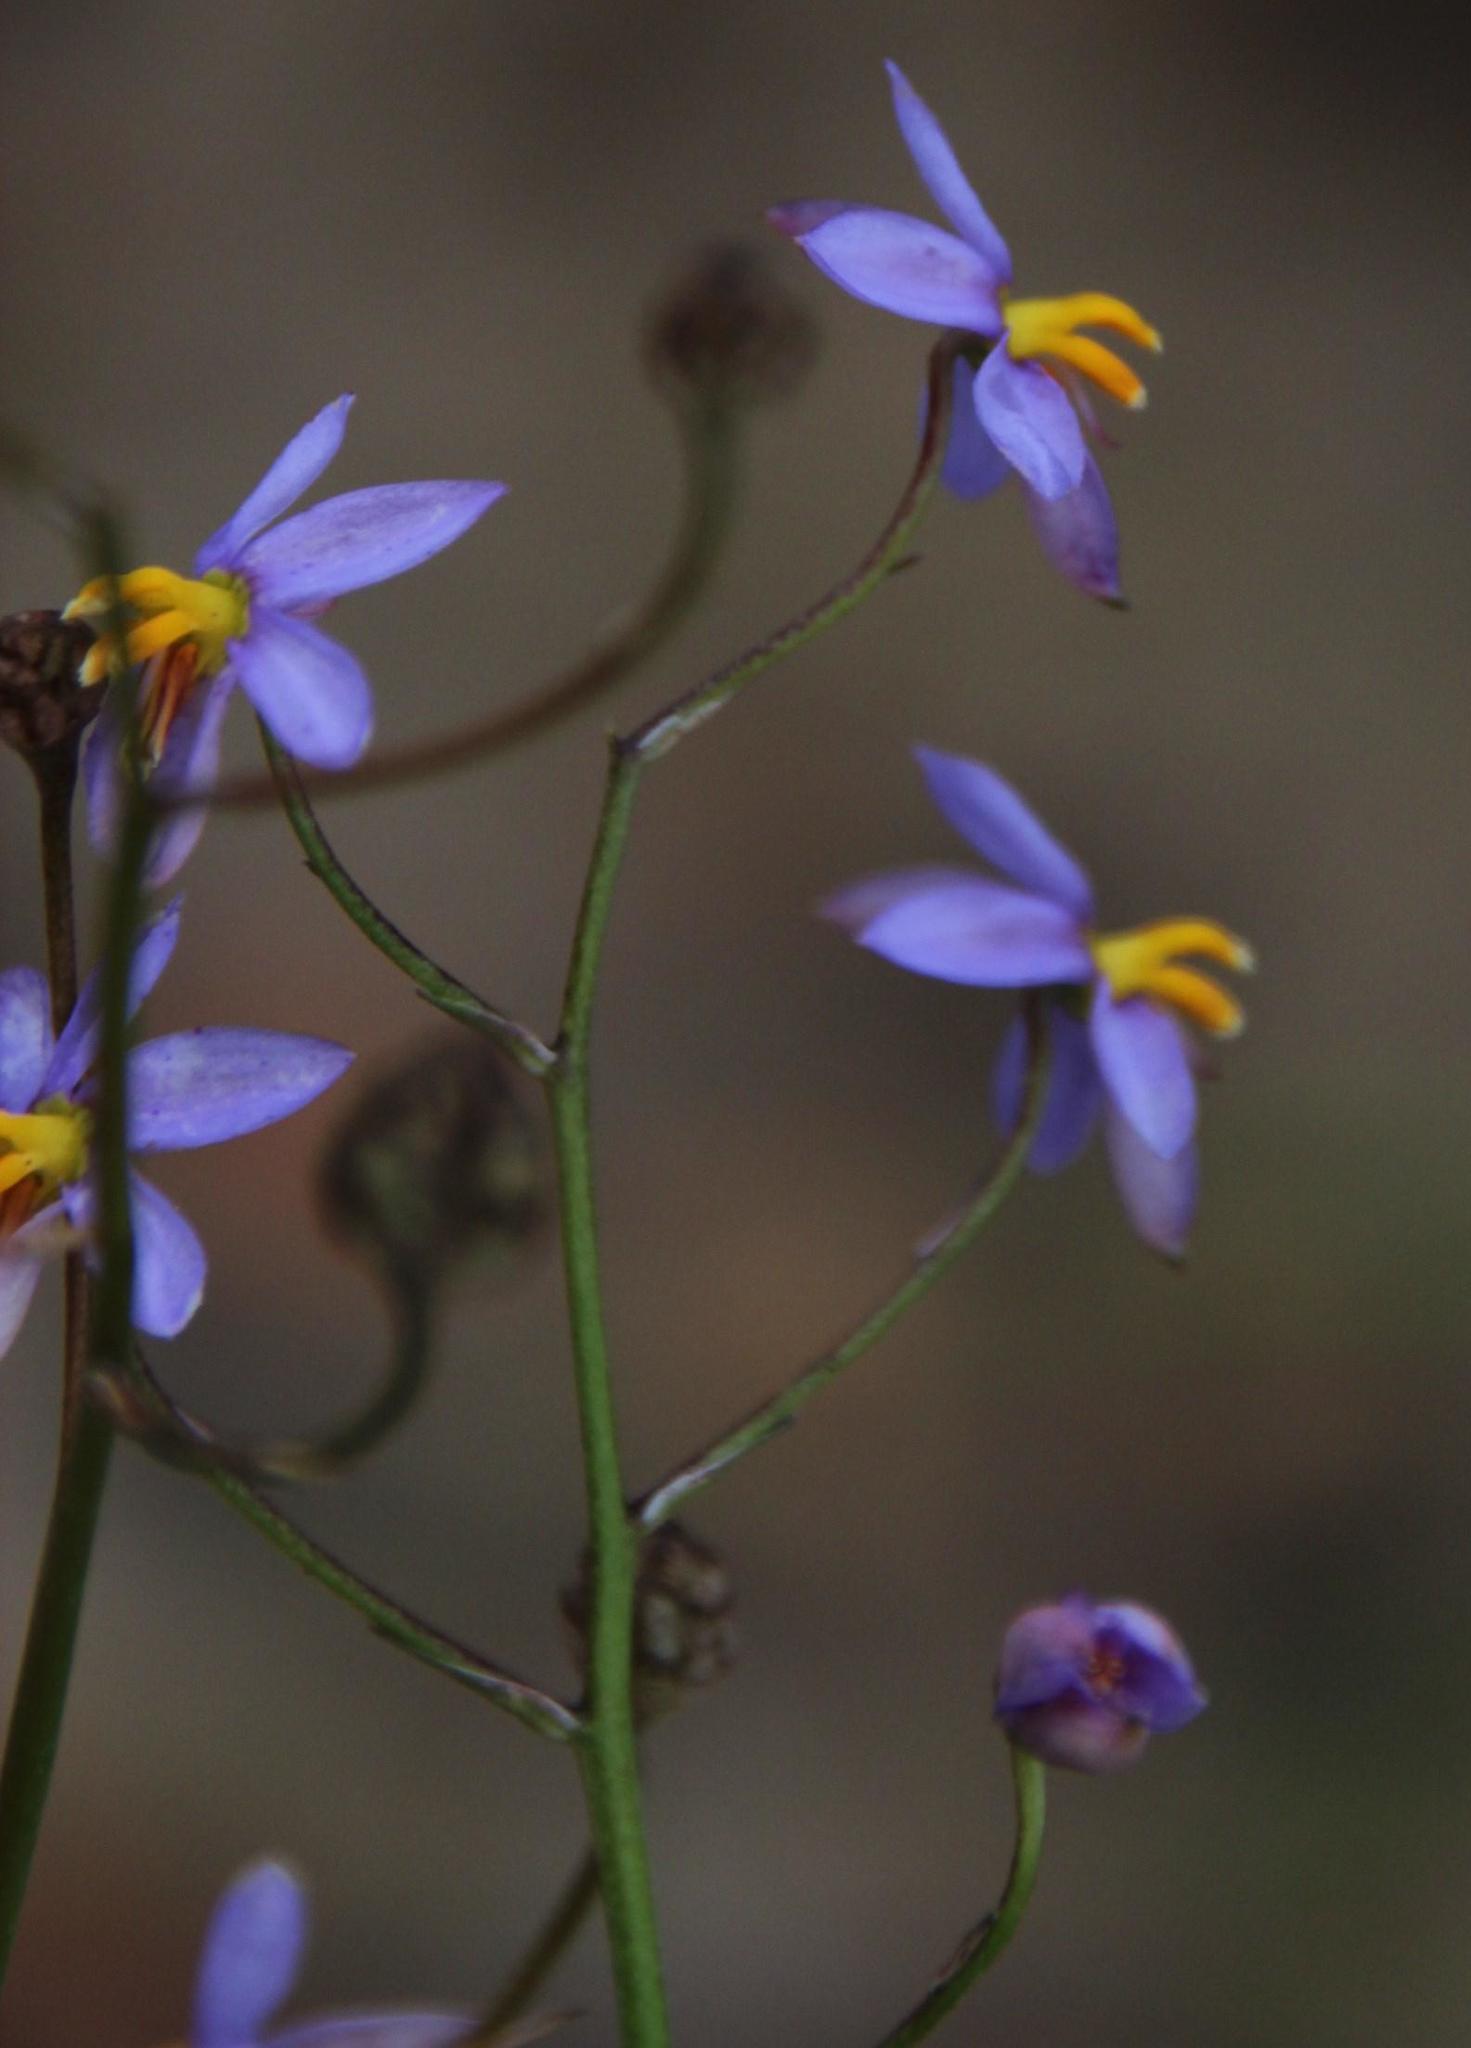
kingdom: Plantae
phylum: Tracheophyta
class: Liliopsida
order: Asparagales
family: Tecophilaeaceae
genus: Cyanella
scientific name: Cyanella hyacinthoides
